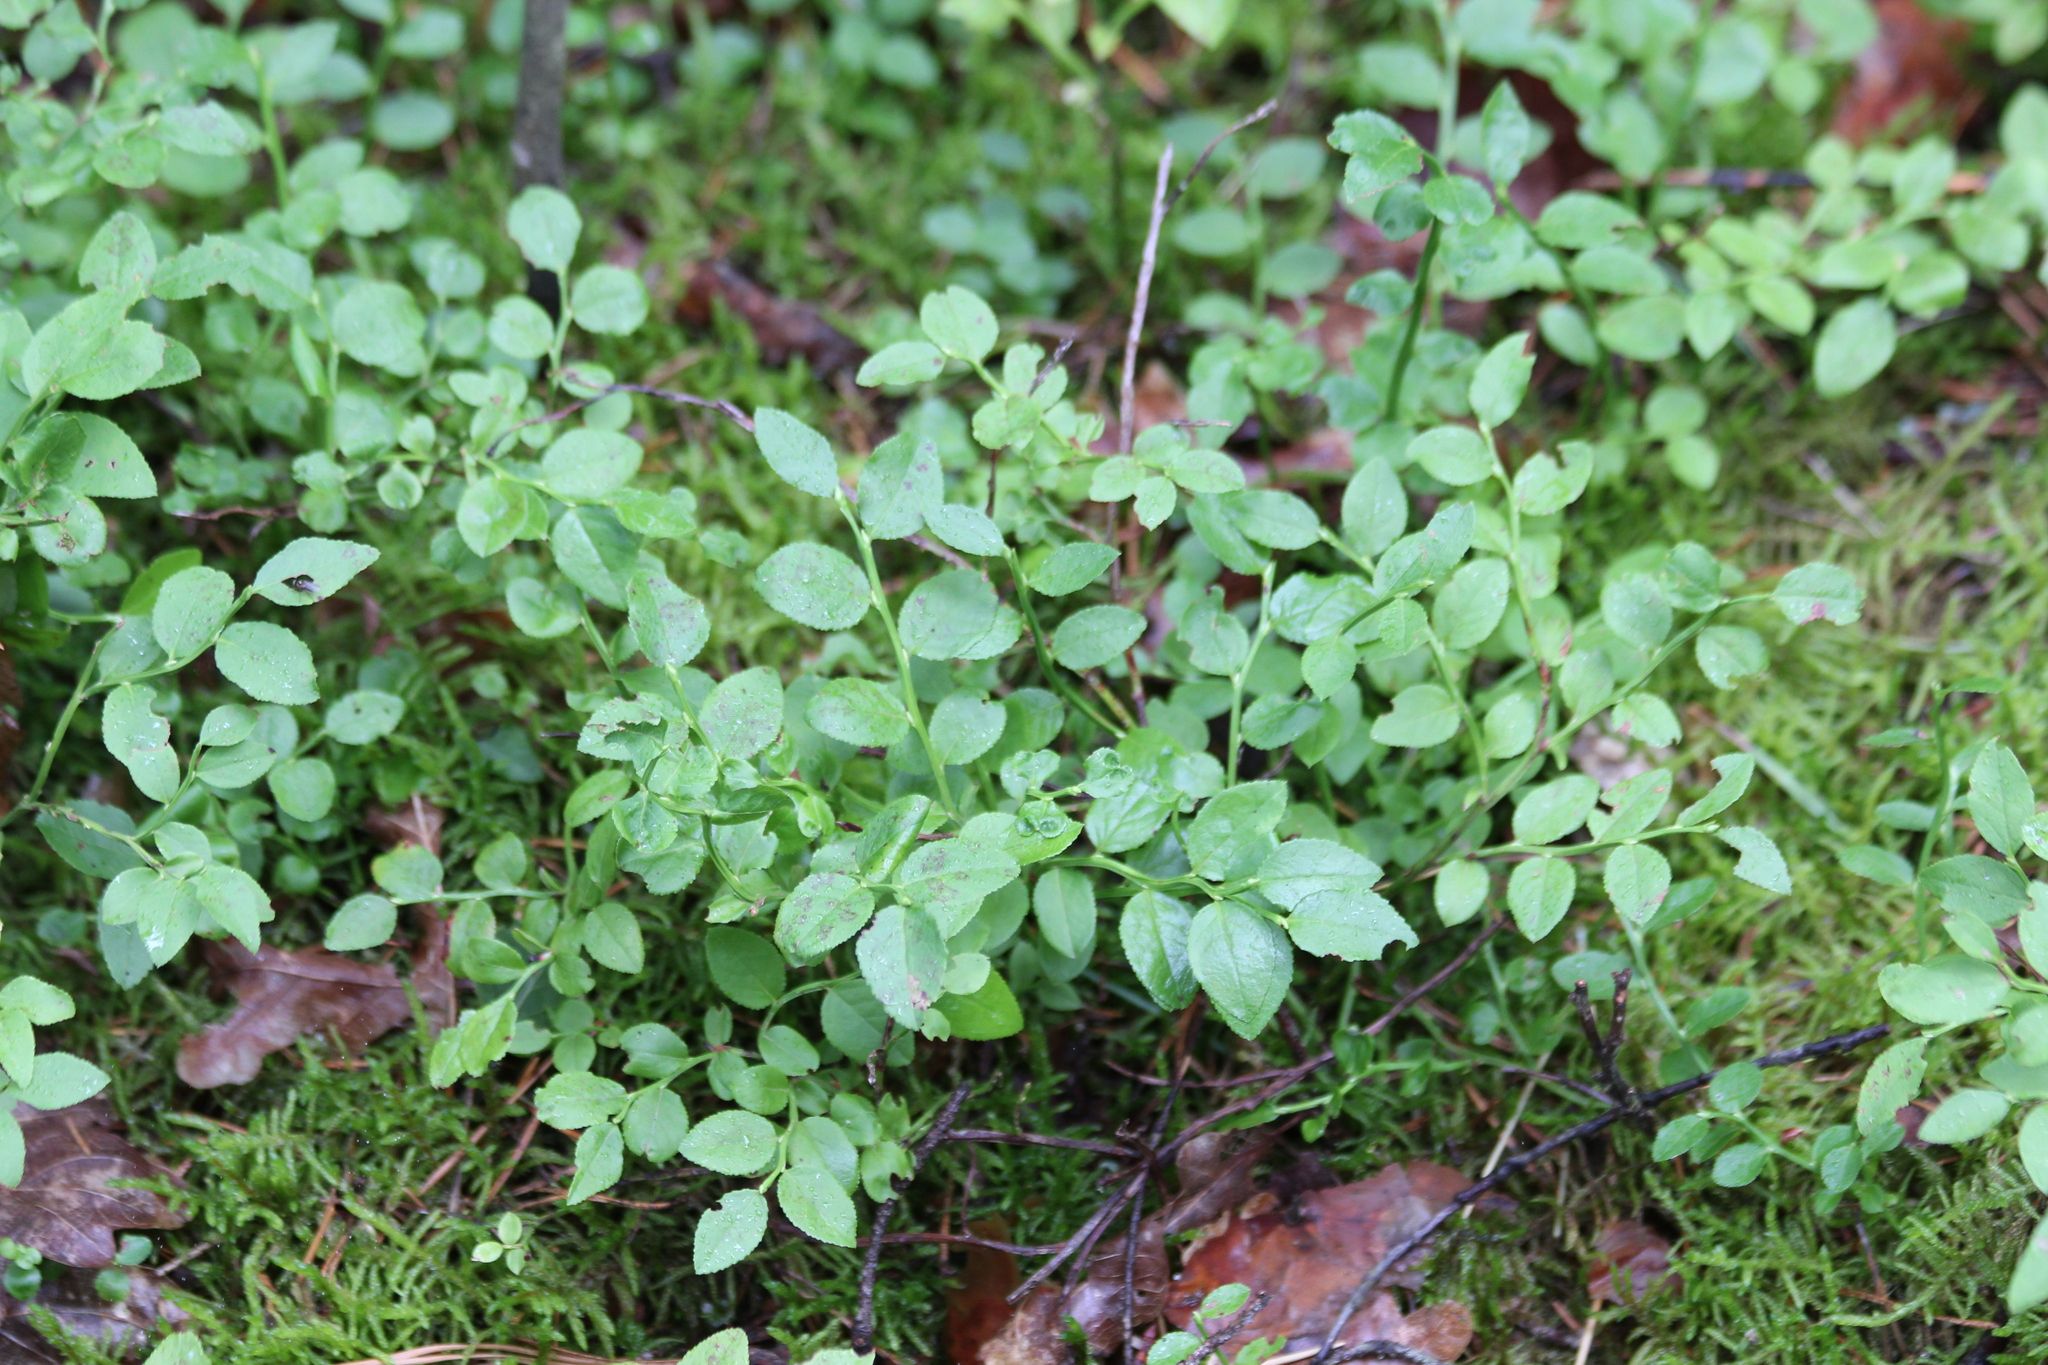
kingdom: Plantae
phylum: Tracheophyta
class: Magnoliopsida
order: Ericales
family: Ericaceae
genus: Vaccinium
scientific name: Vaccinium myrtillus
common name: Bilberry
